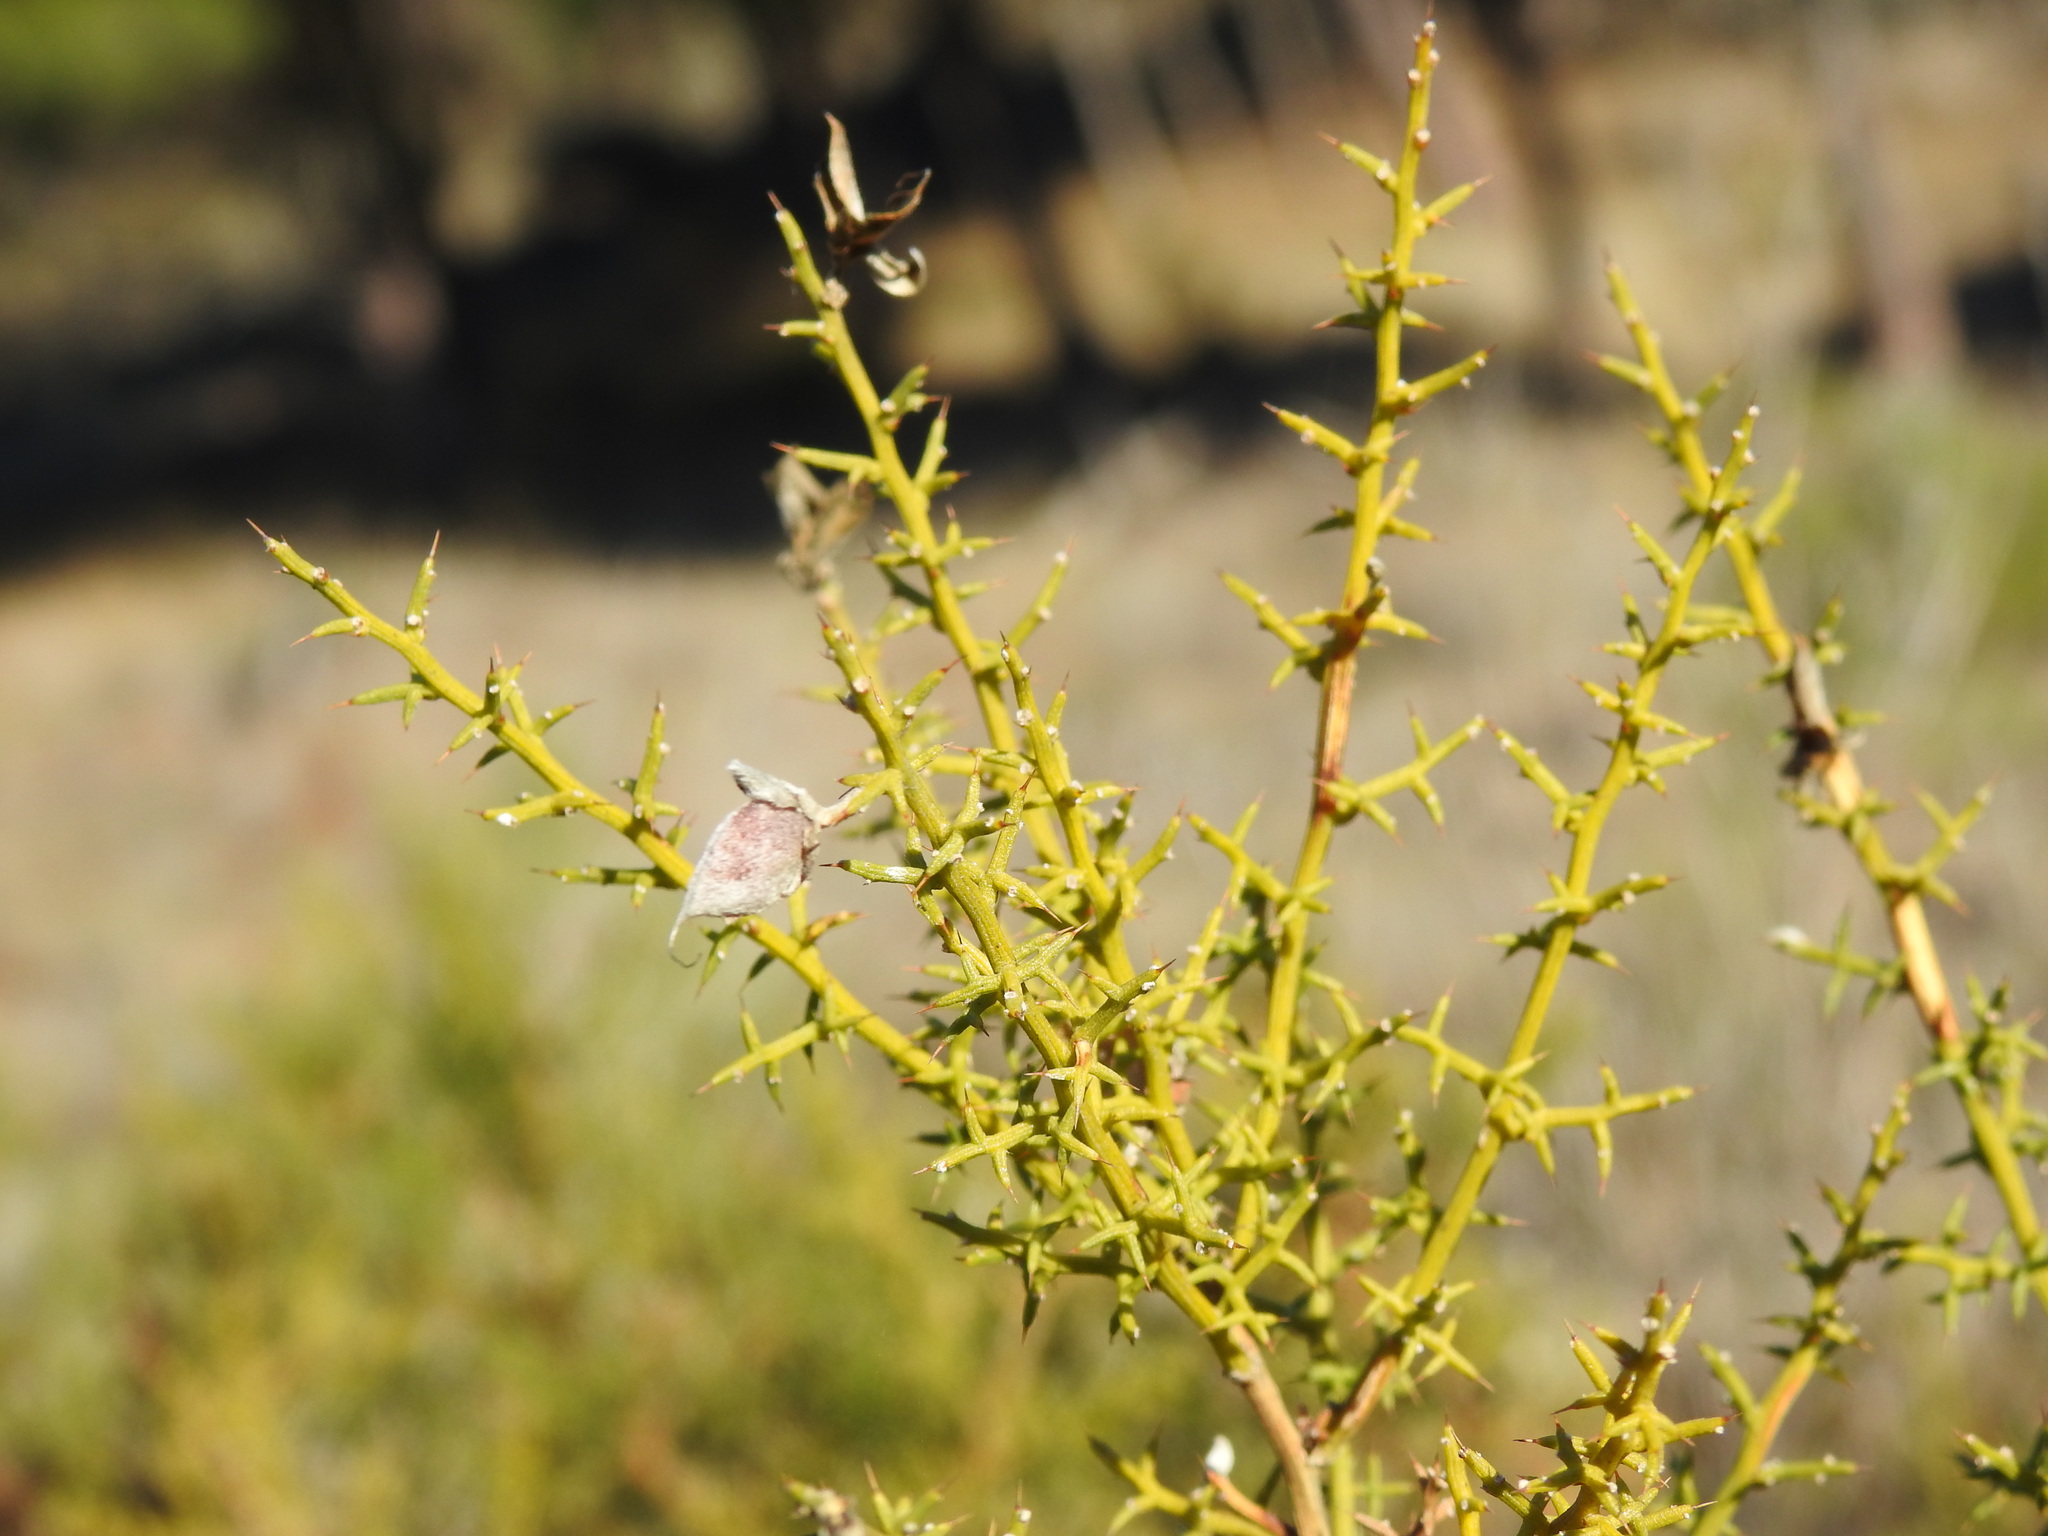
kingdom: Plantae
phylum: Tracheophyta
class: Magnoliopsida
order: Fabales
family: Fabaceae
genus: Stauracanthus
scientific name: Stauracanthus boivinii
